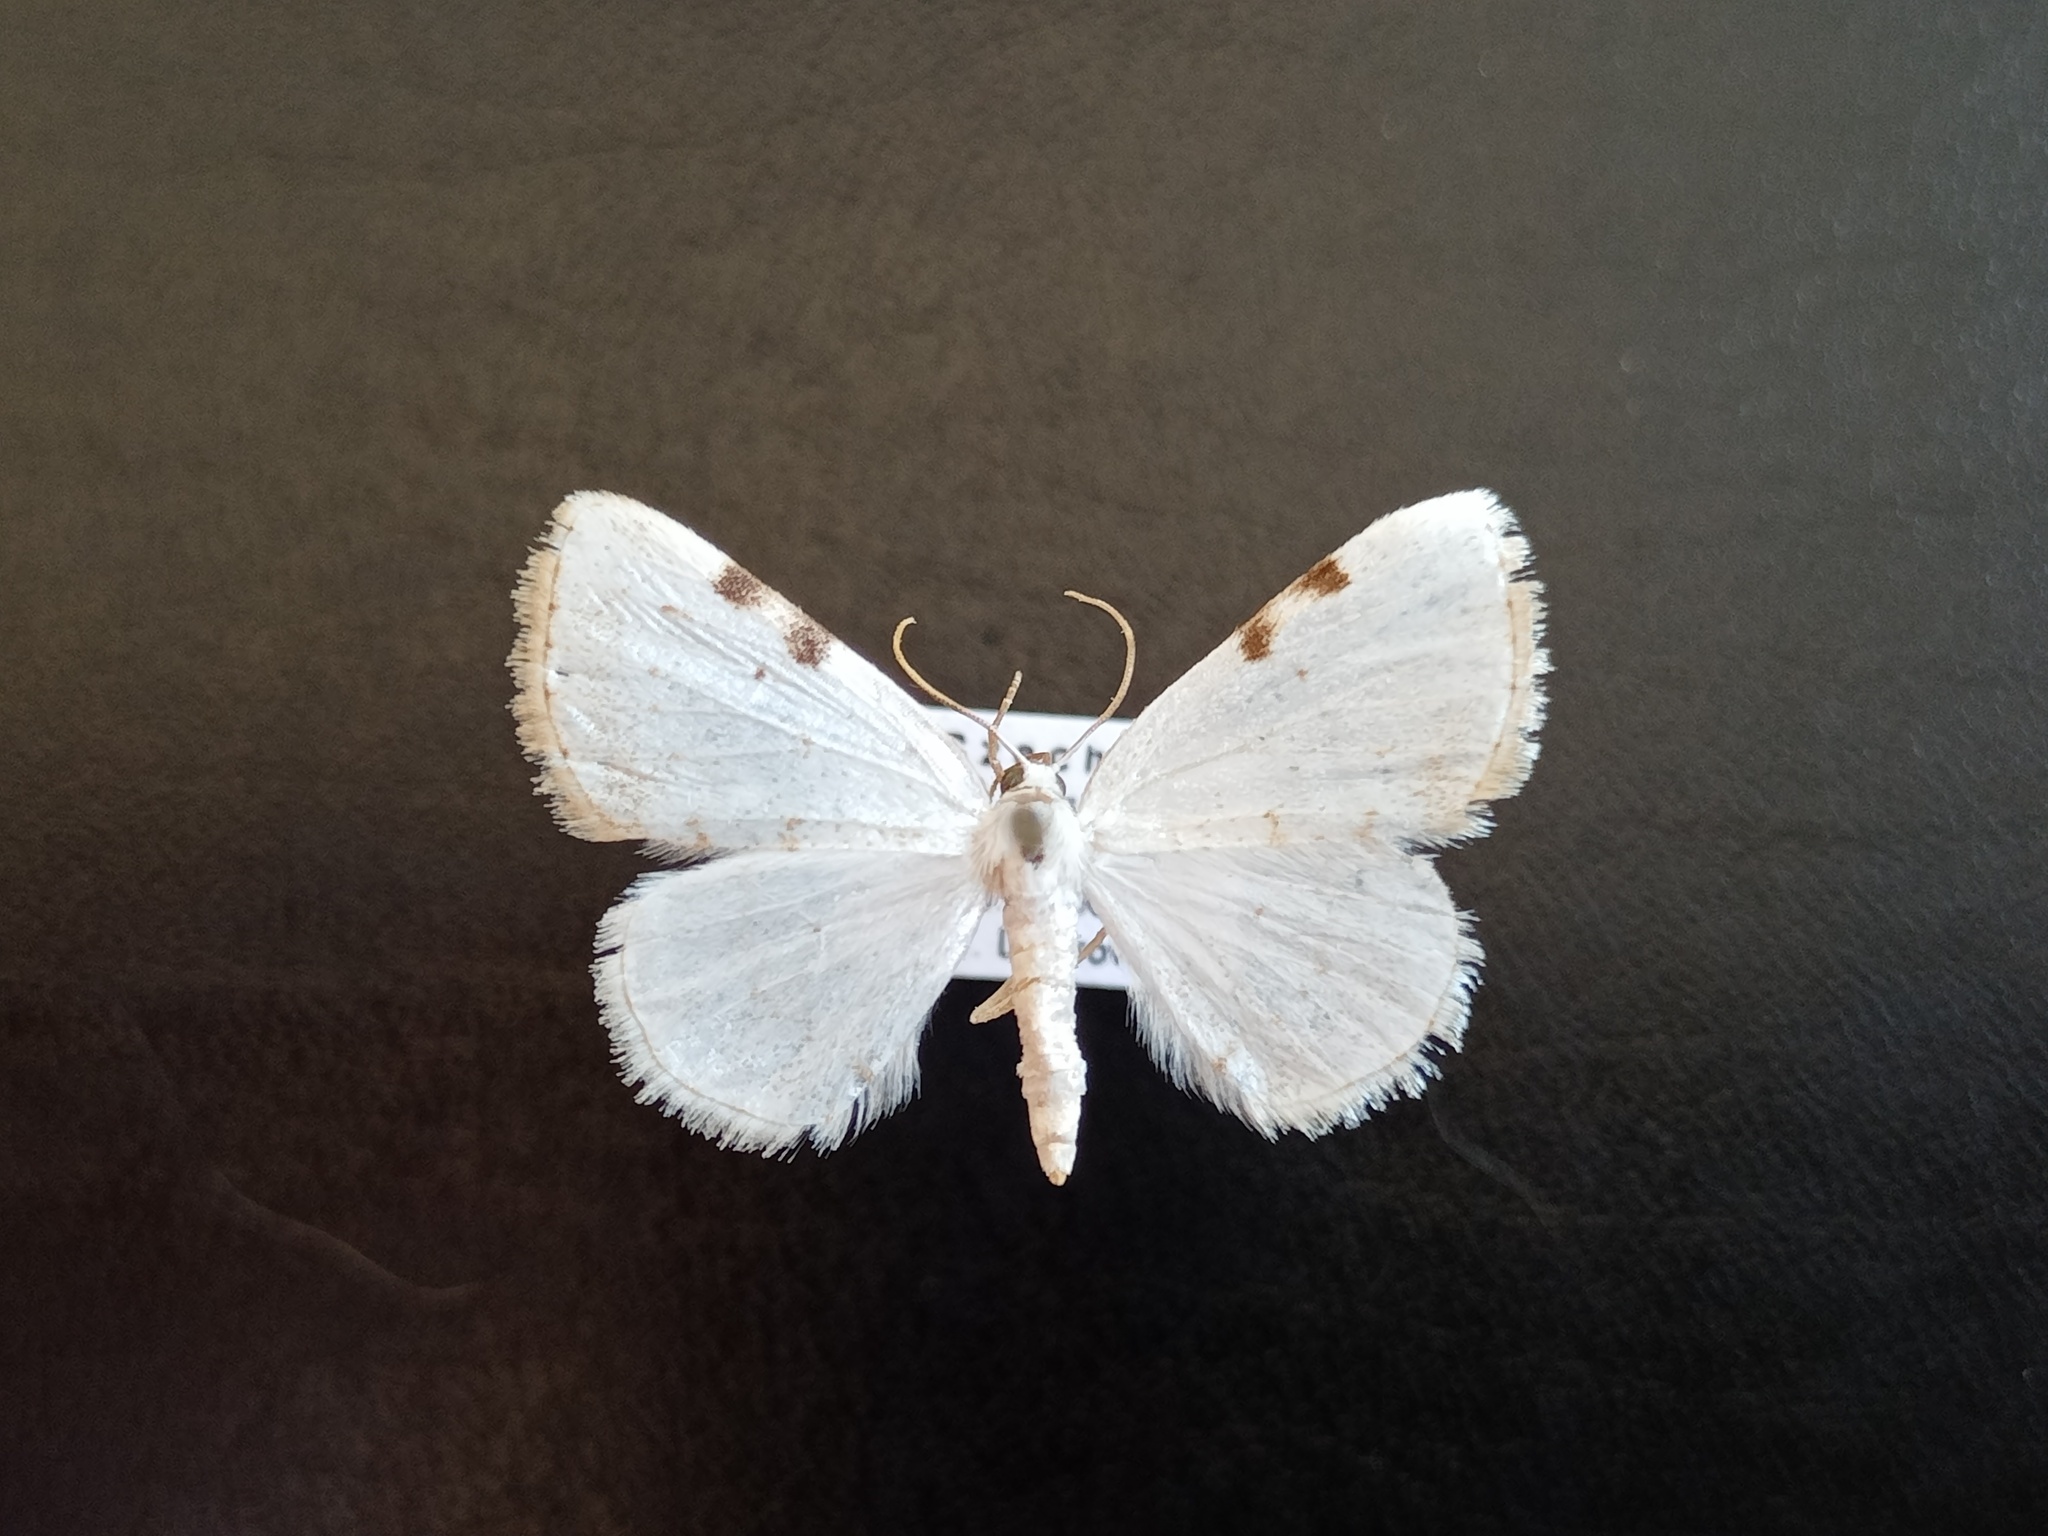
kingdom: Animalia
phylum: Arthropoda
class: Insecta
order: Lepidoptera
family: Geometridae
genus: Lomographa
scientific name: Lomographa bimaculata
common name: White-pinion spotted
